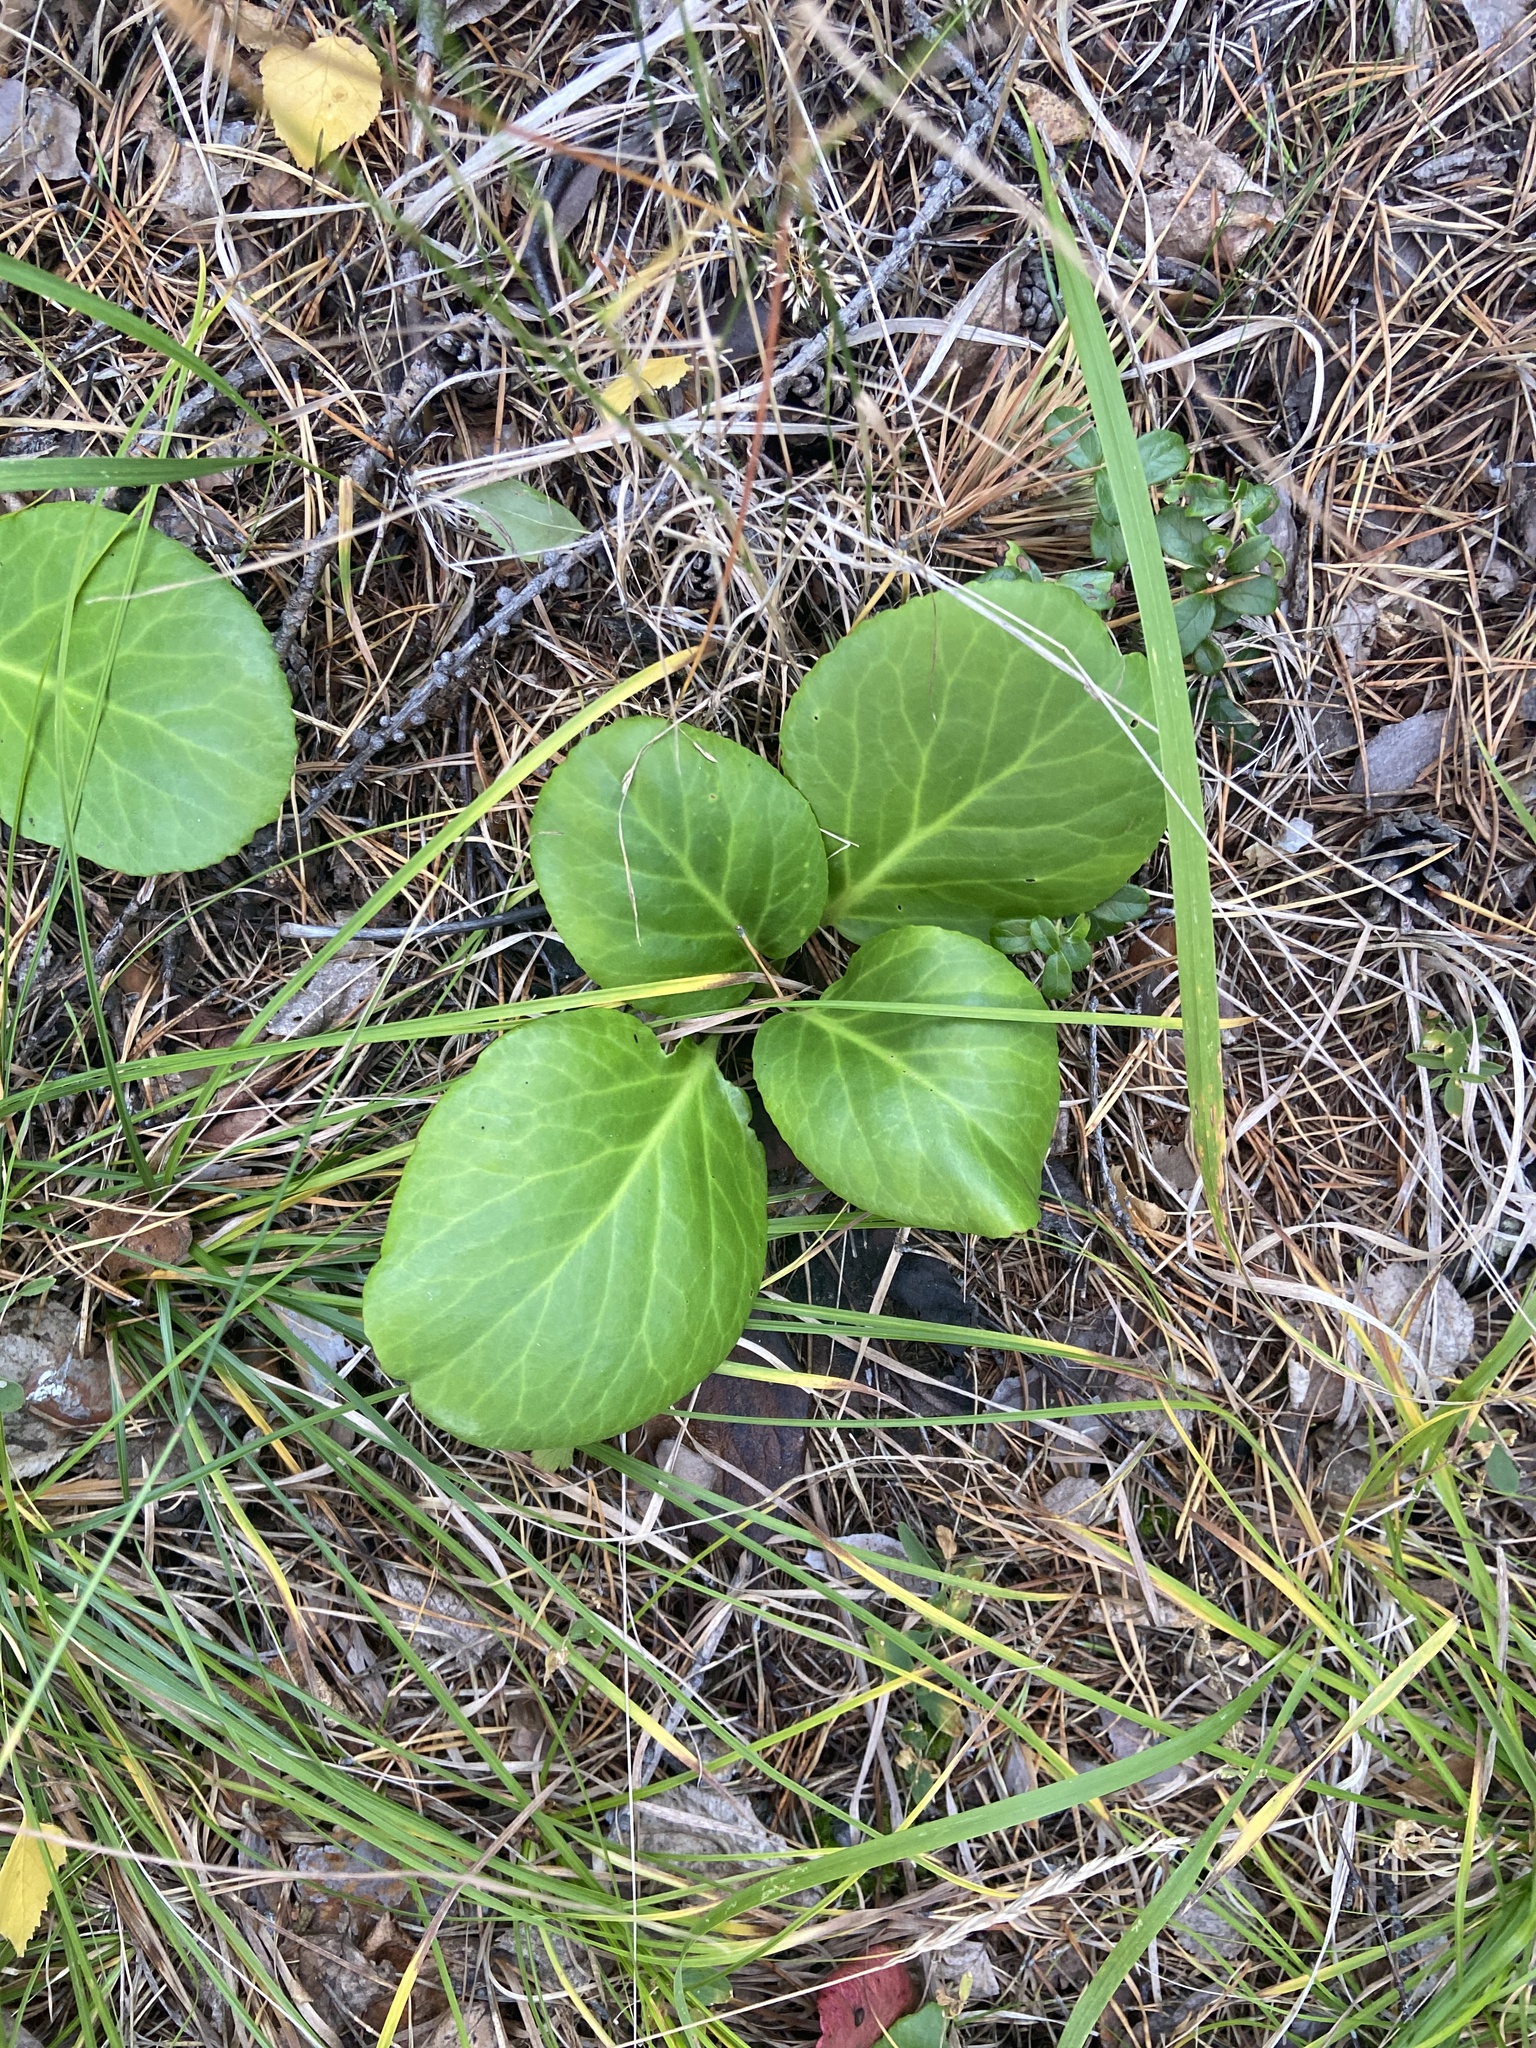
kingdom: Plantae
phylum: Tracheophyta
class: Magnoliopsida
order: Saxifragales
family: Saxifragaceae
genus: Bergenia
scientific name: Bergenia crassifolia
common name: Elephant-ears
